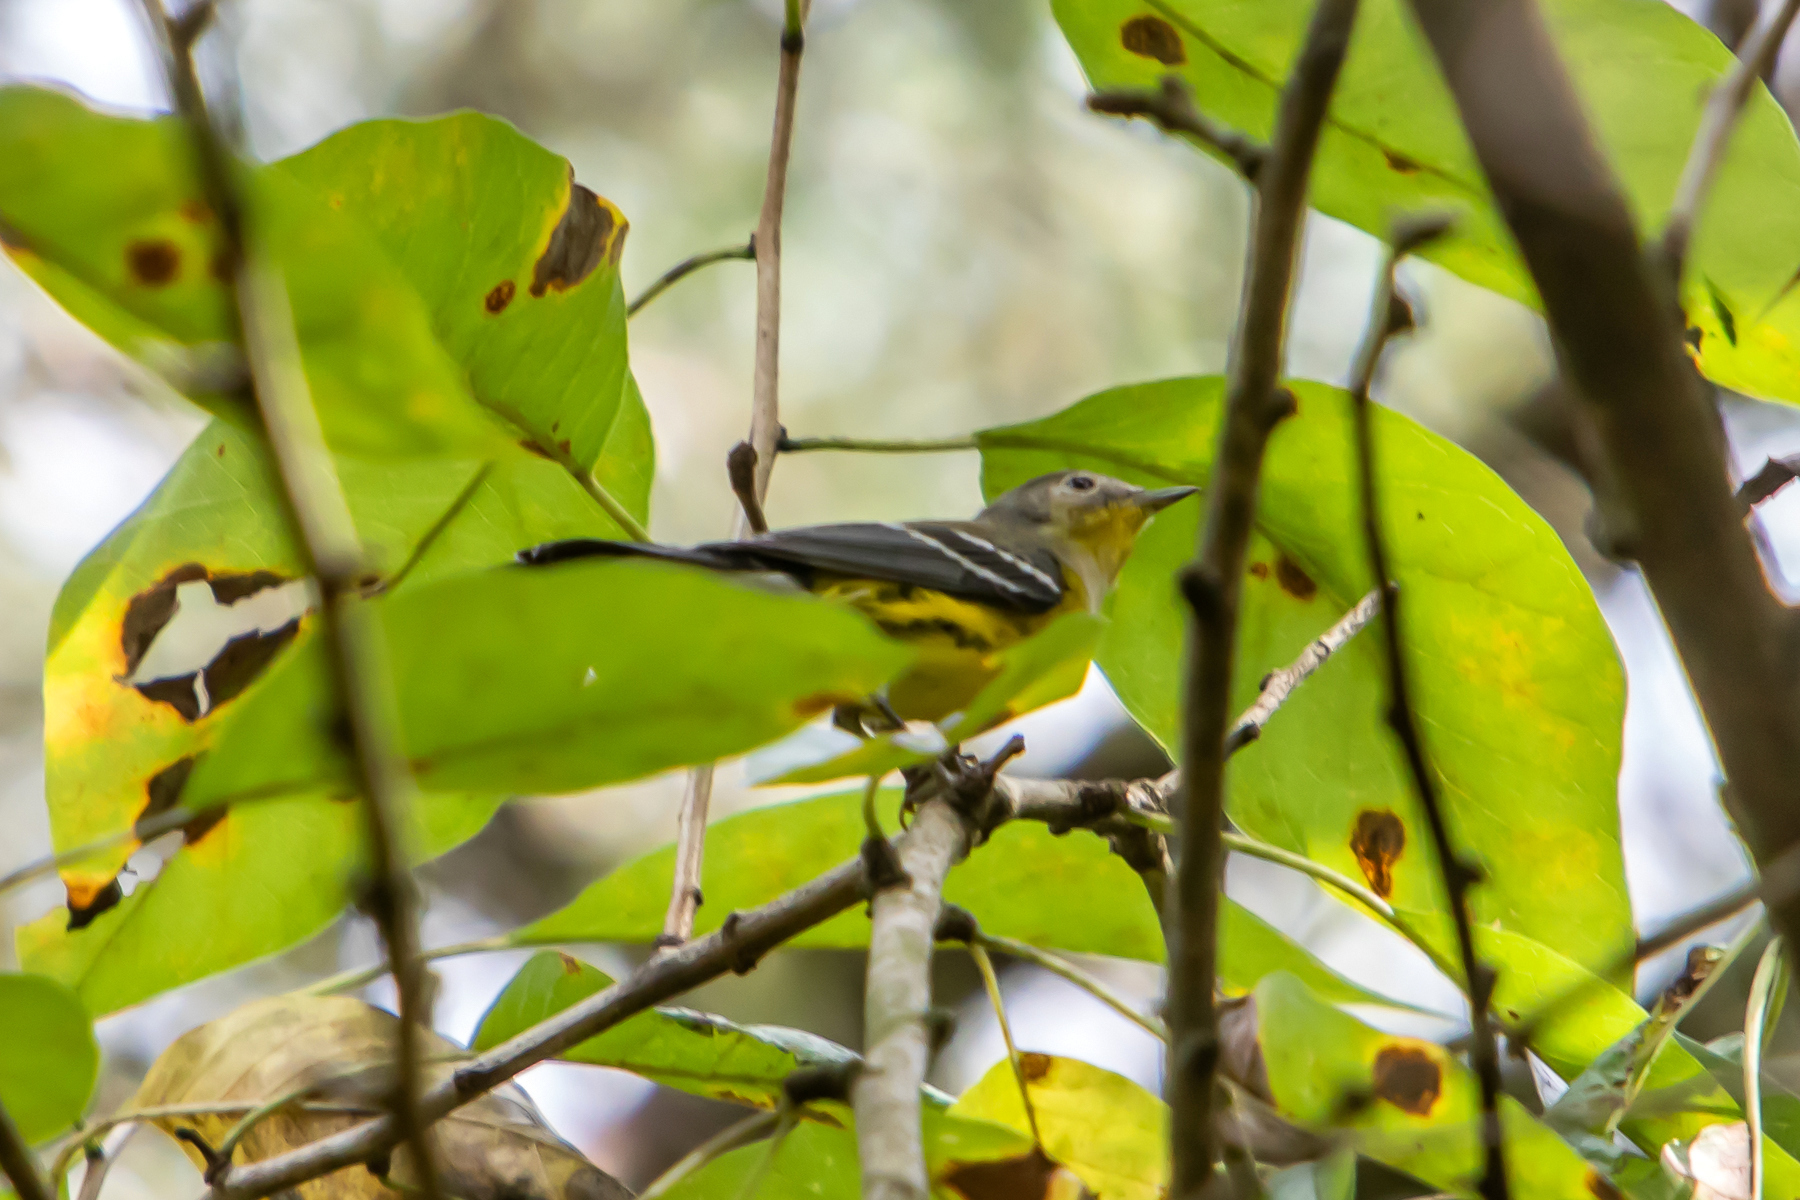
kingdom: Animalia
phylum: Chordata
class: Aves
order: Passeriformes
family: Parulidae
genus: Setophaga
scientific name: Setophaga magnolia
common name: Magnolia warbler
